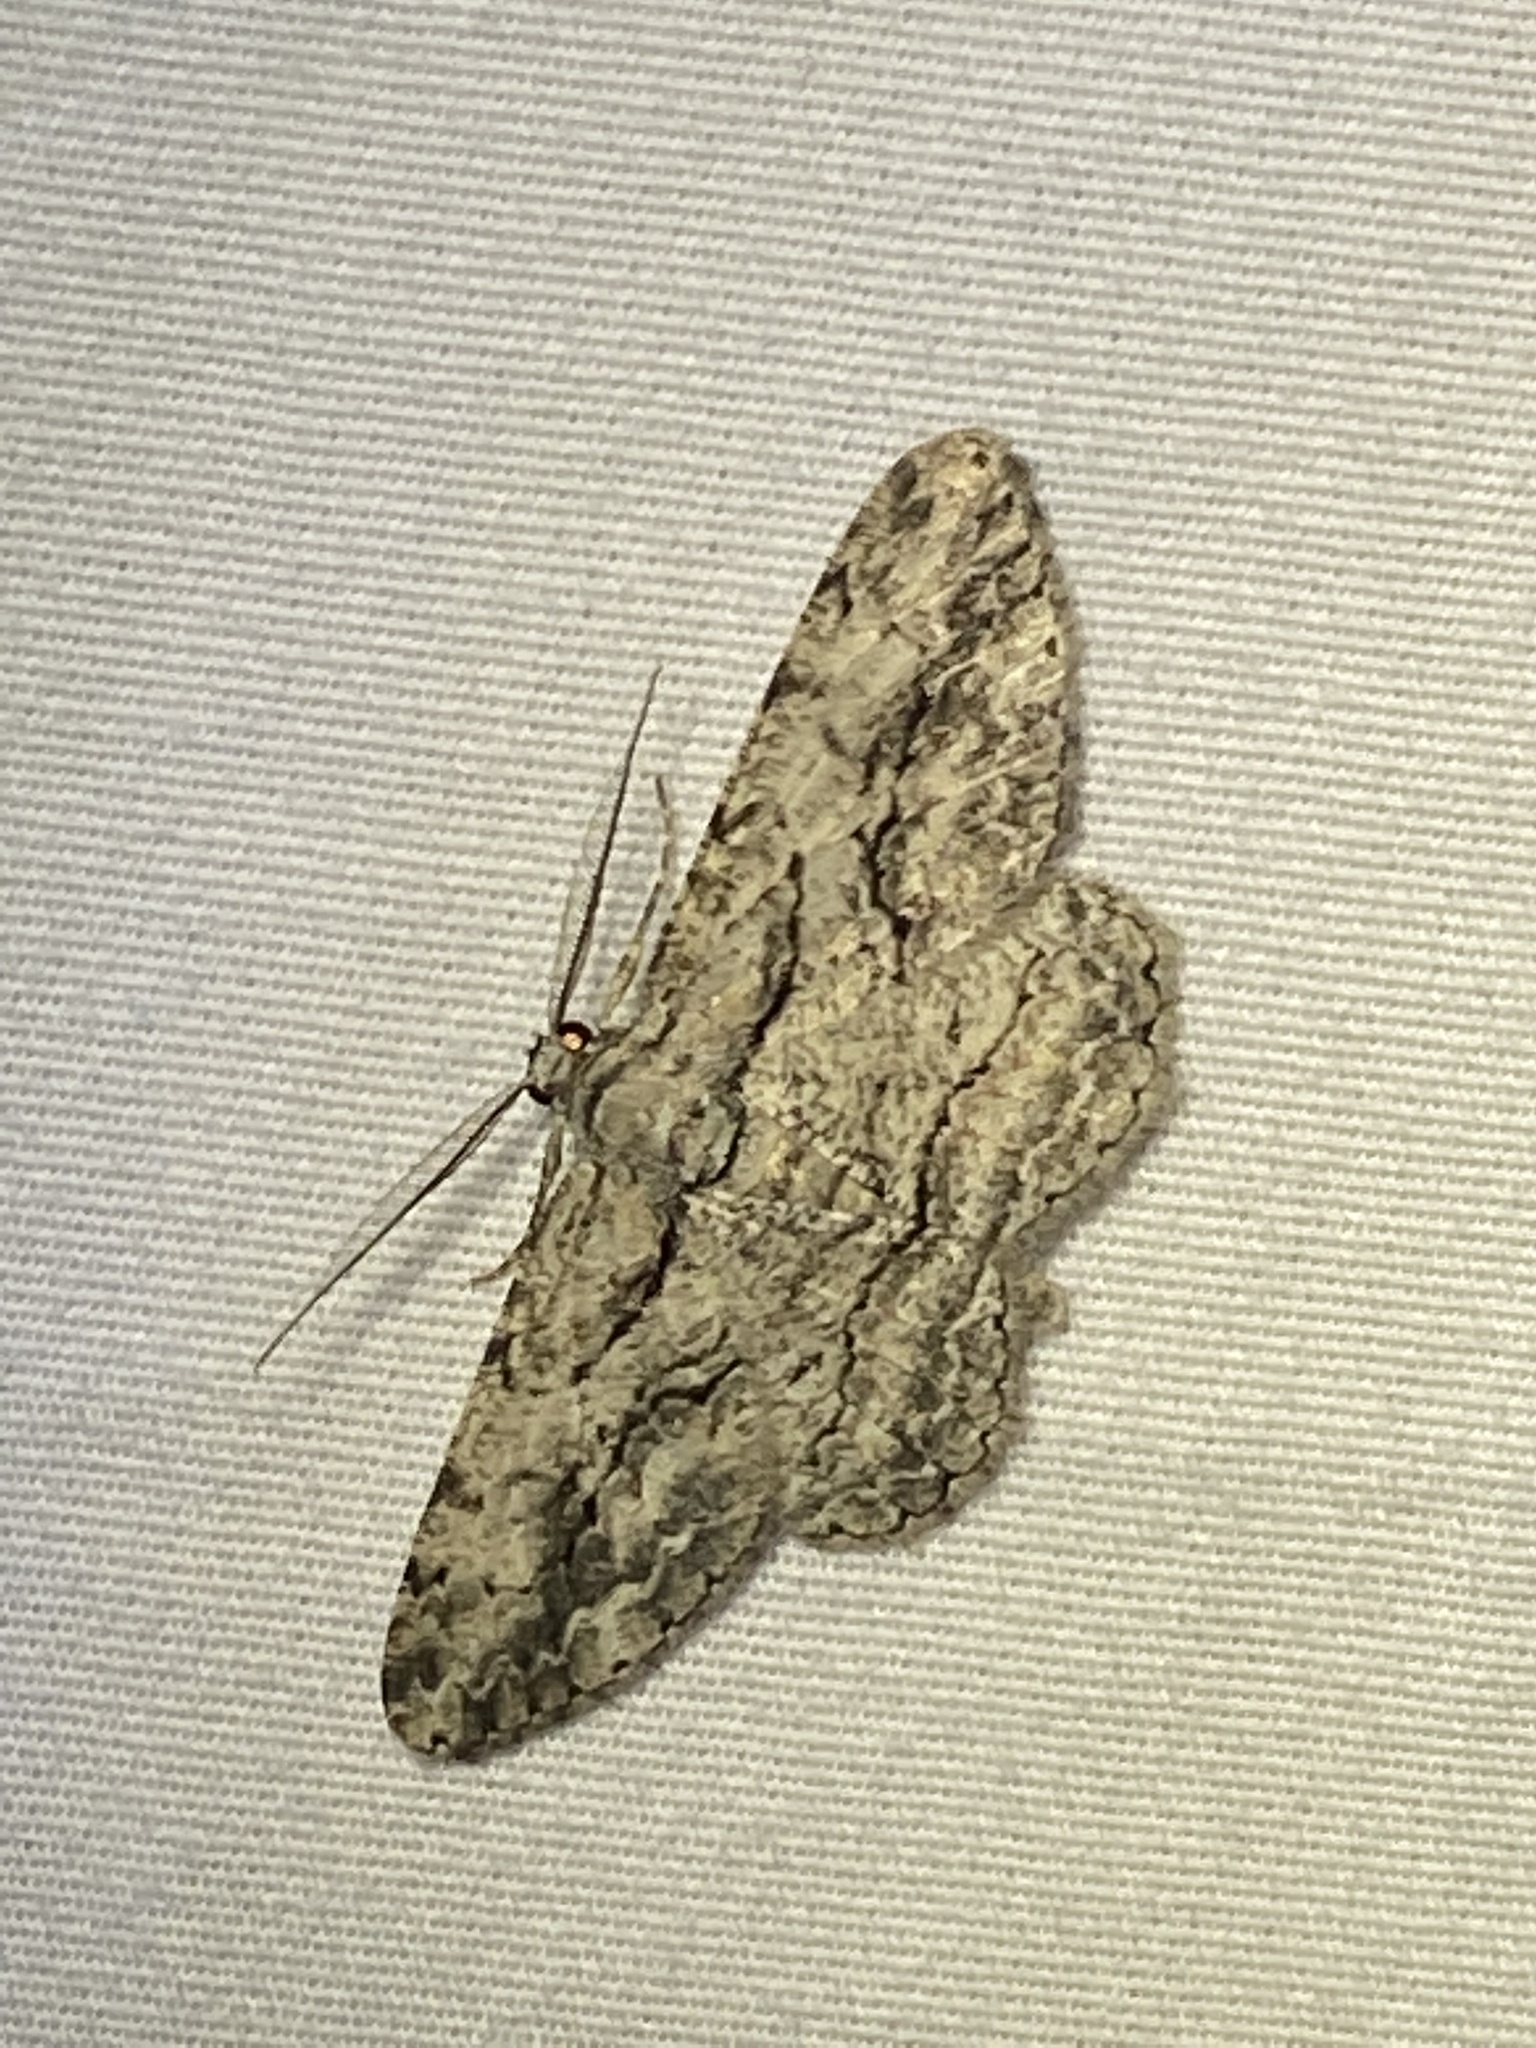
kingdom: Animalia
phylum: Arthropoda
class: Insecta
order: Lepidoptera
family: Geometridae
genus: Anavitrinella
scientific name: Anavitrinella pampinaria
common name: Common gray
